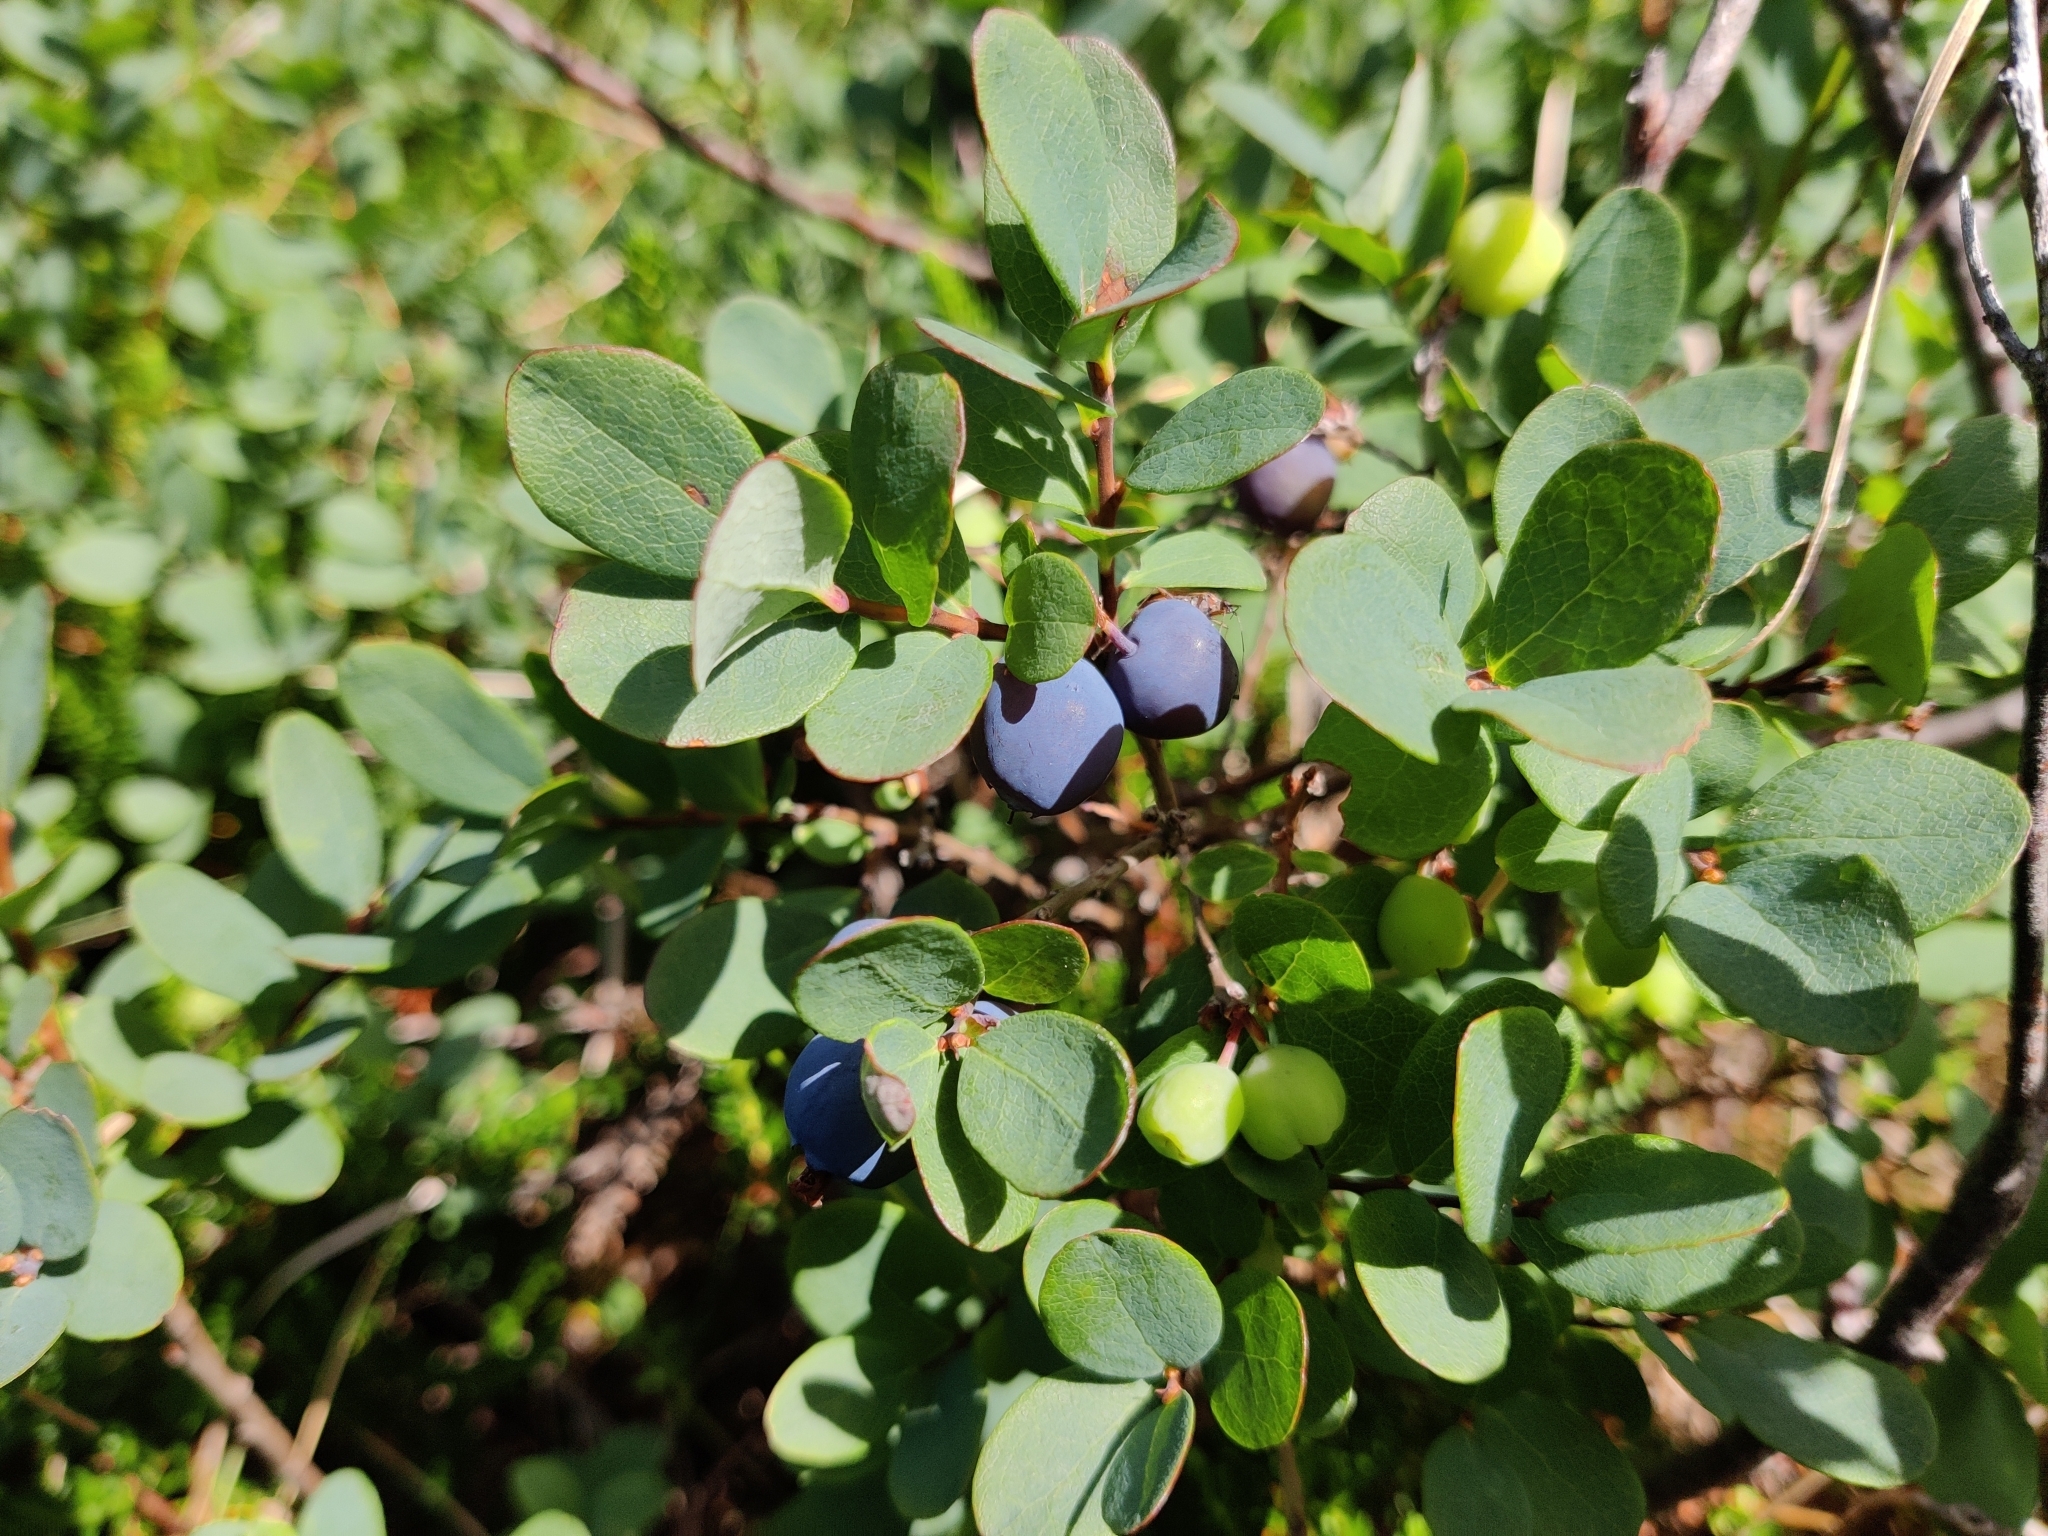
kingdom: Plantae
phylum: Tracheophyta
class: Magnoliopsida
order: Ericales
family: Ericaceae
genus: Vaccinium
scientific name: Vaccinium uliginosum
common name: Bog bilberry
